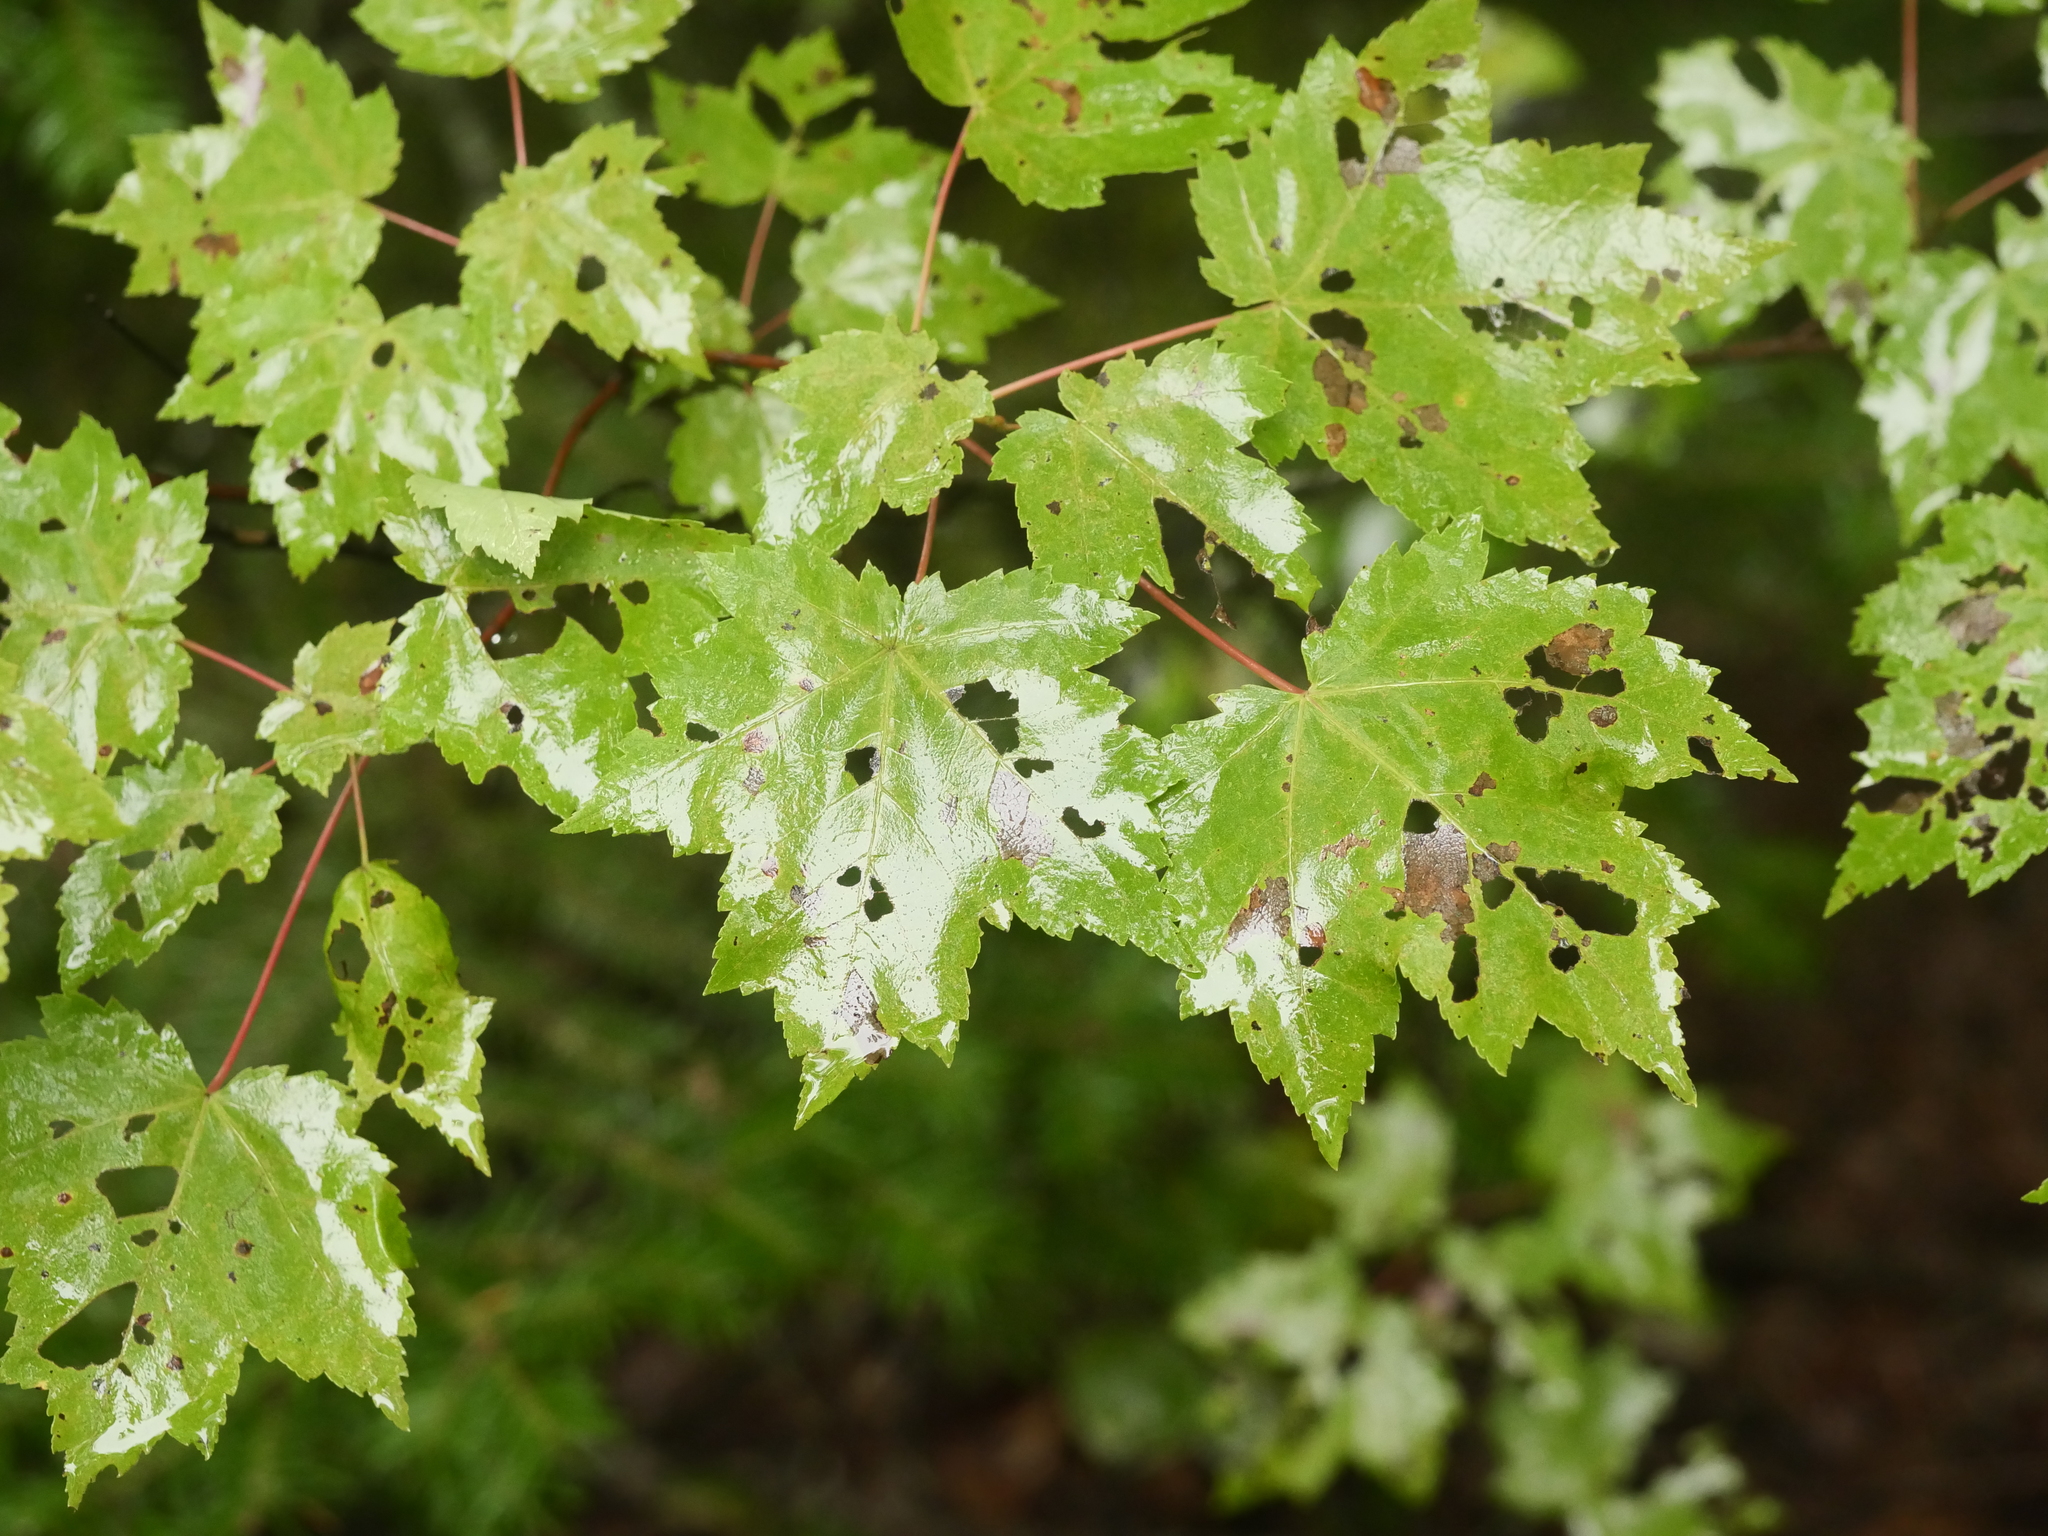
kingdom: Plantae
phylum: Tracheophyta
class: Magnoliopsida
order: Sapindales
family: Sapindaceae
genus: Acer
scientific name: Acer rubrum
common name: Red maple
